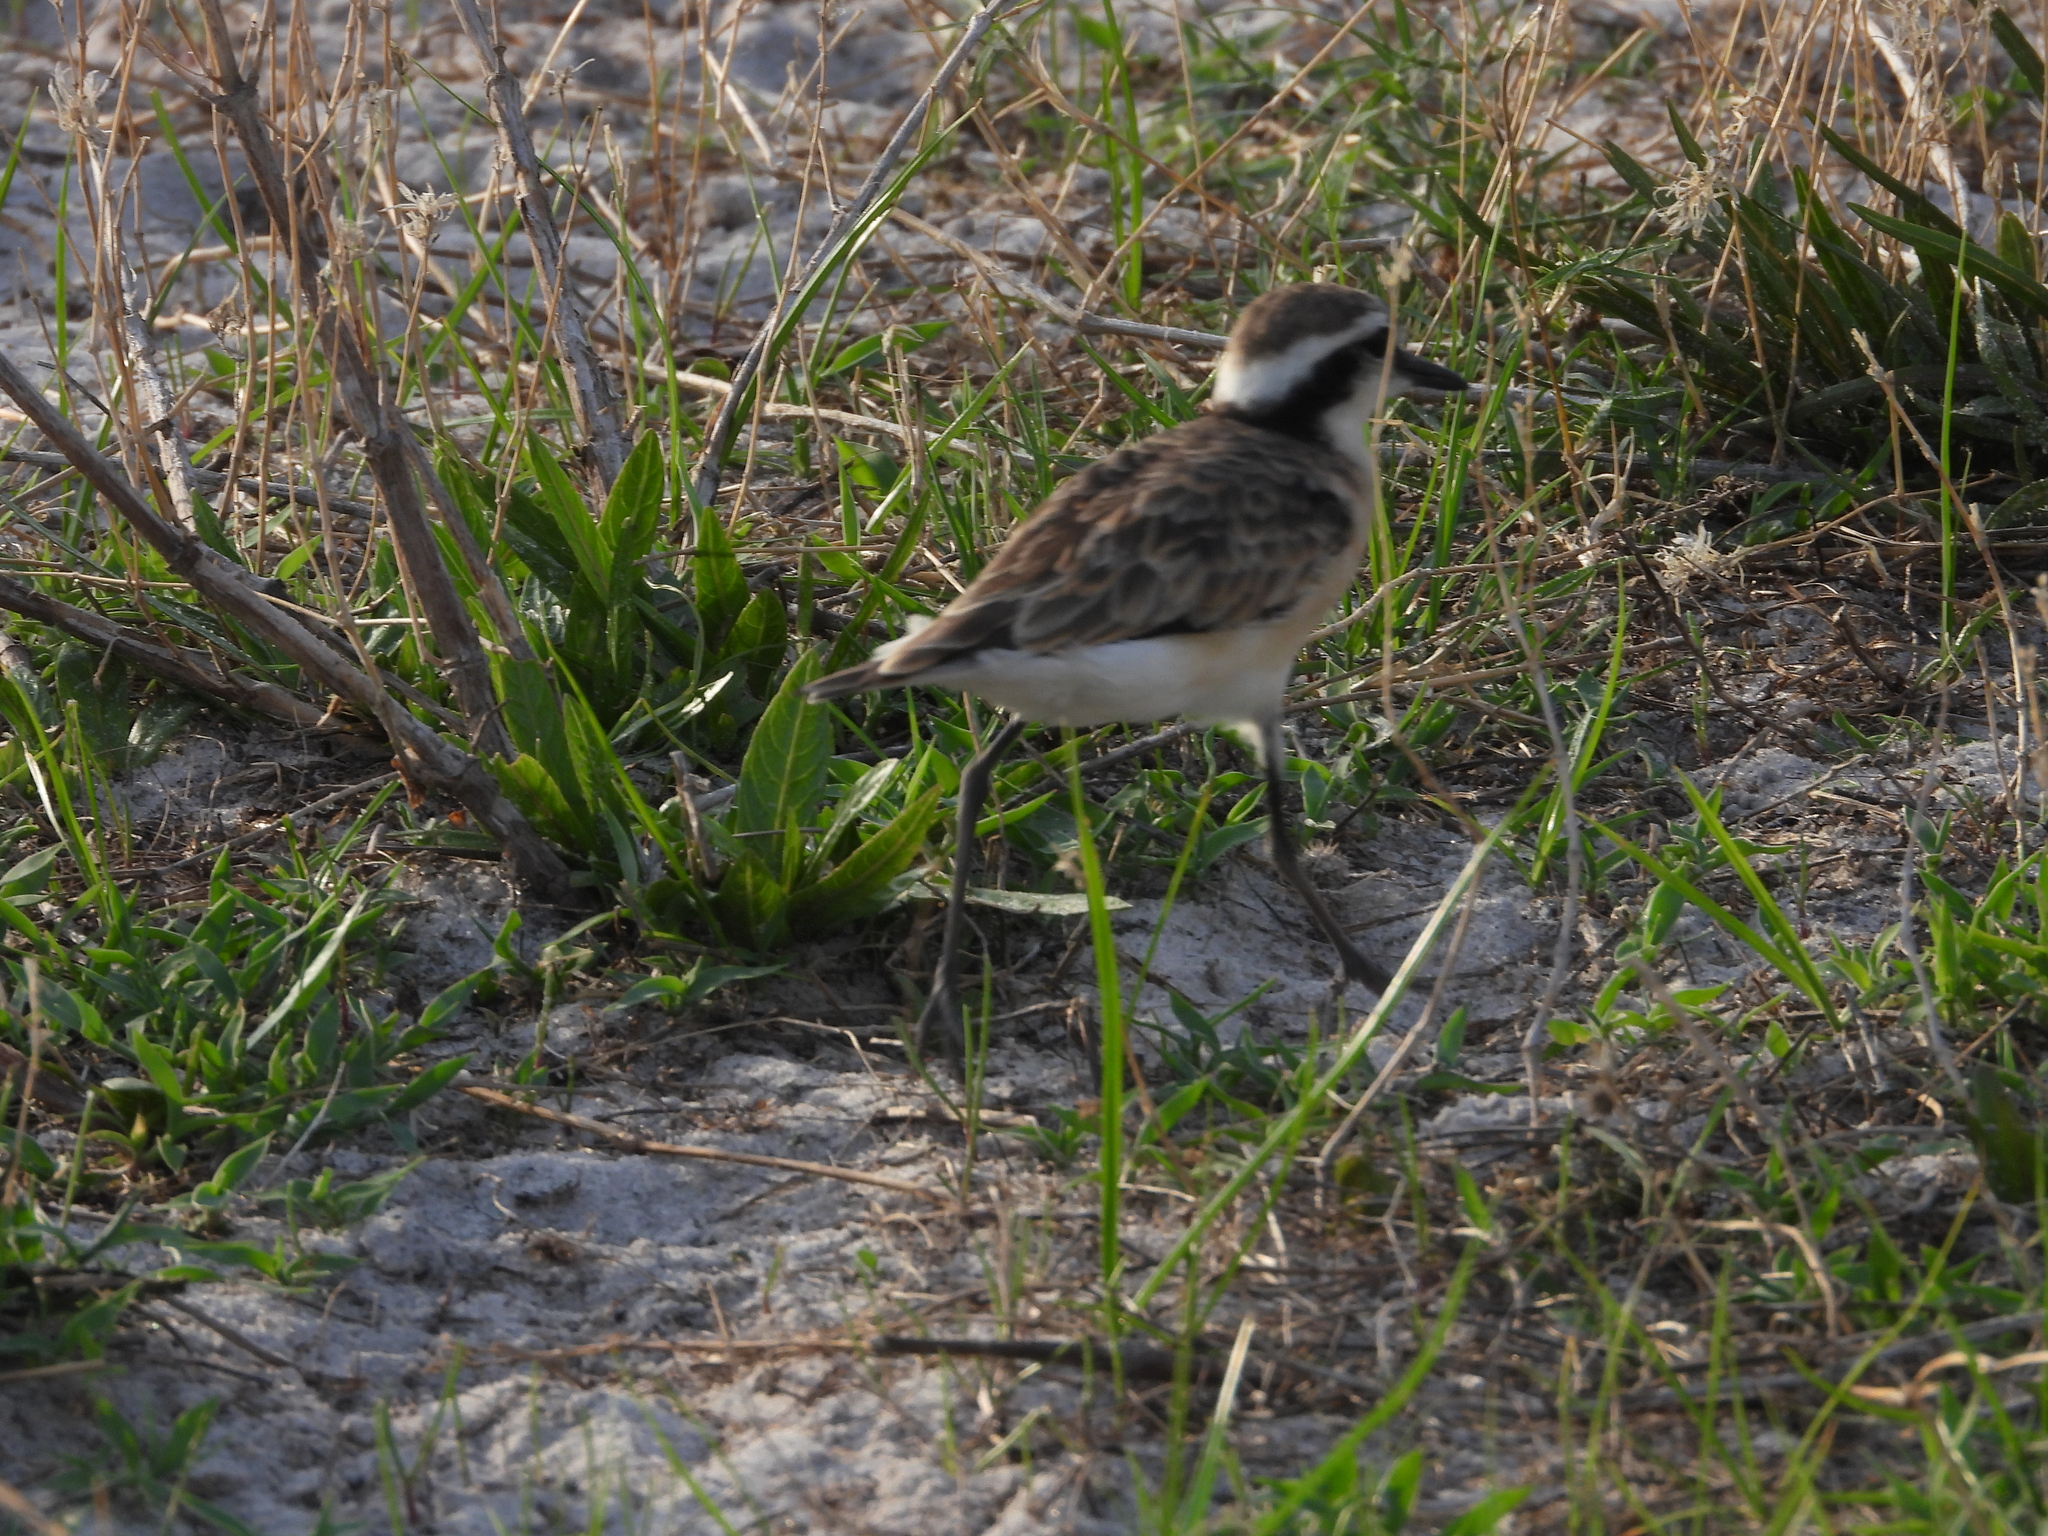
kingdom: Animalia
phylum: Chordata
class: Aves
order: Charadriiformes
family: Charadriidae
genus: Anarhynchus
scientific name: Anarhynchus
